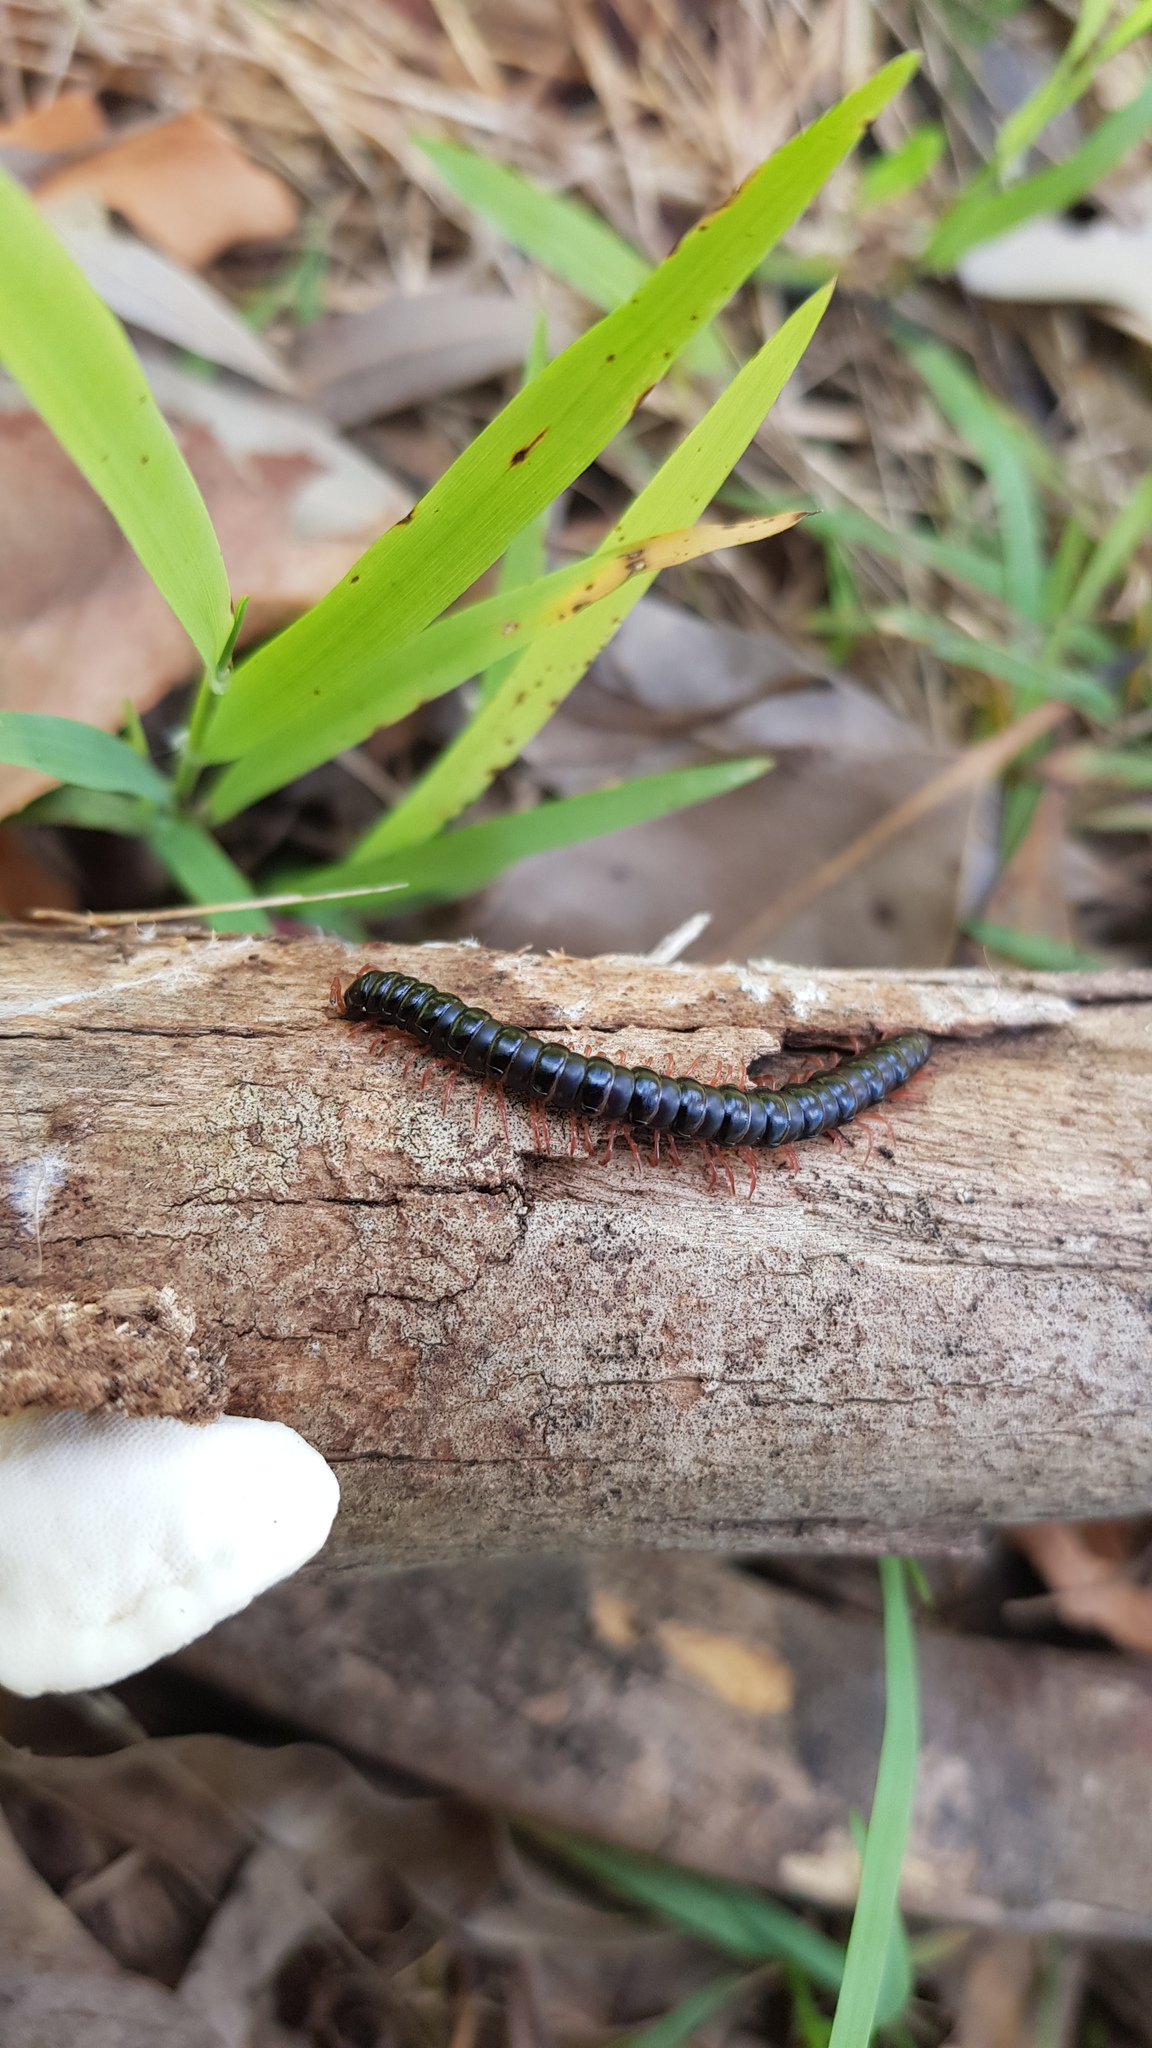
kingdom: Animalia
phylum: Arthropoda
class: Diplopoda
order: Polydesmida
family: Paradoxosomatidae
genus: Heterocladosoma
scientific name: Heterocladosoma
